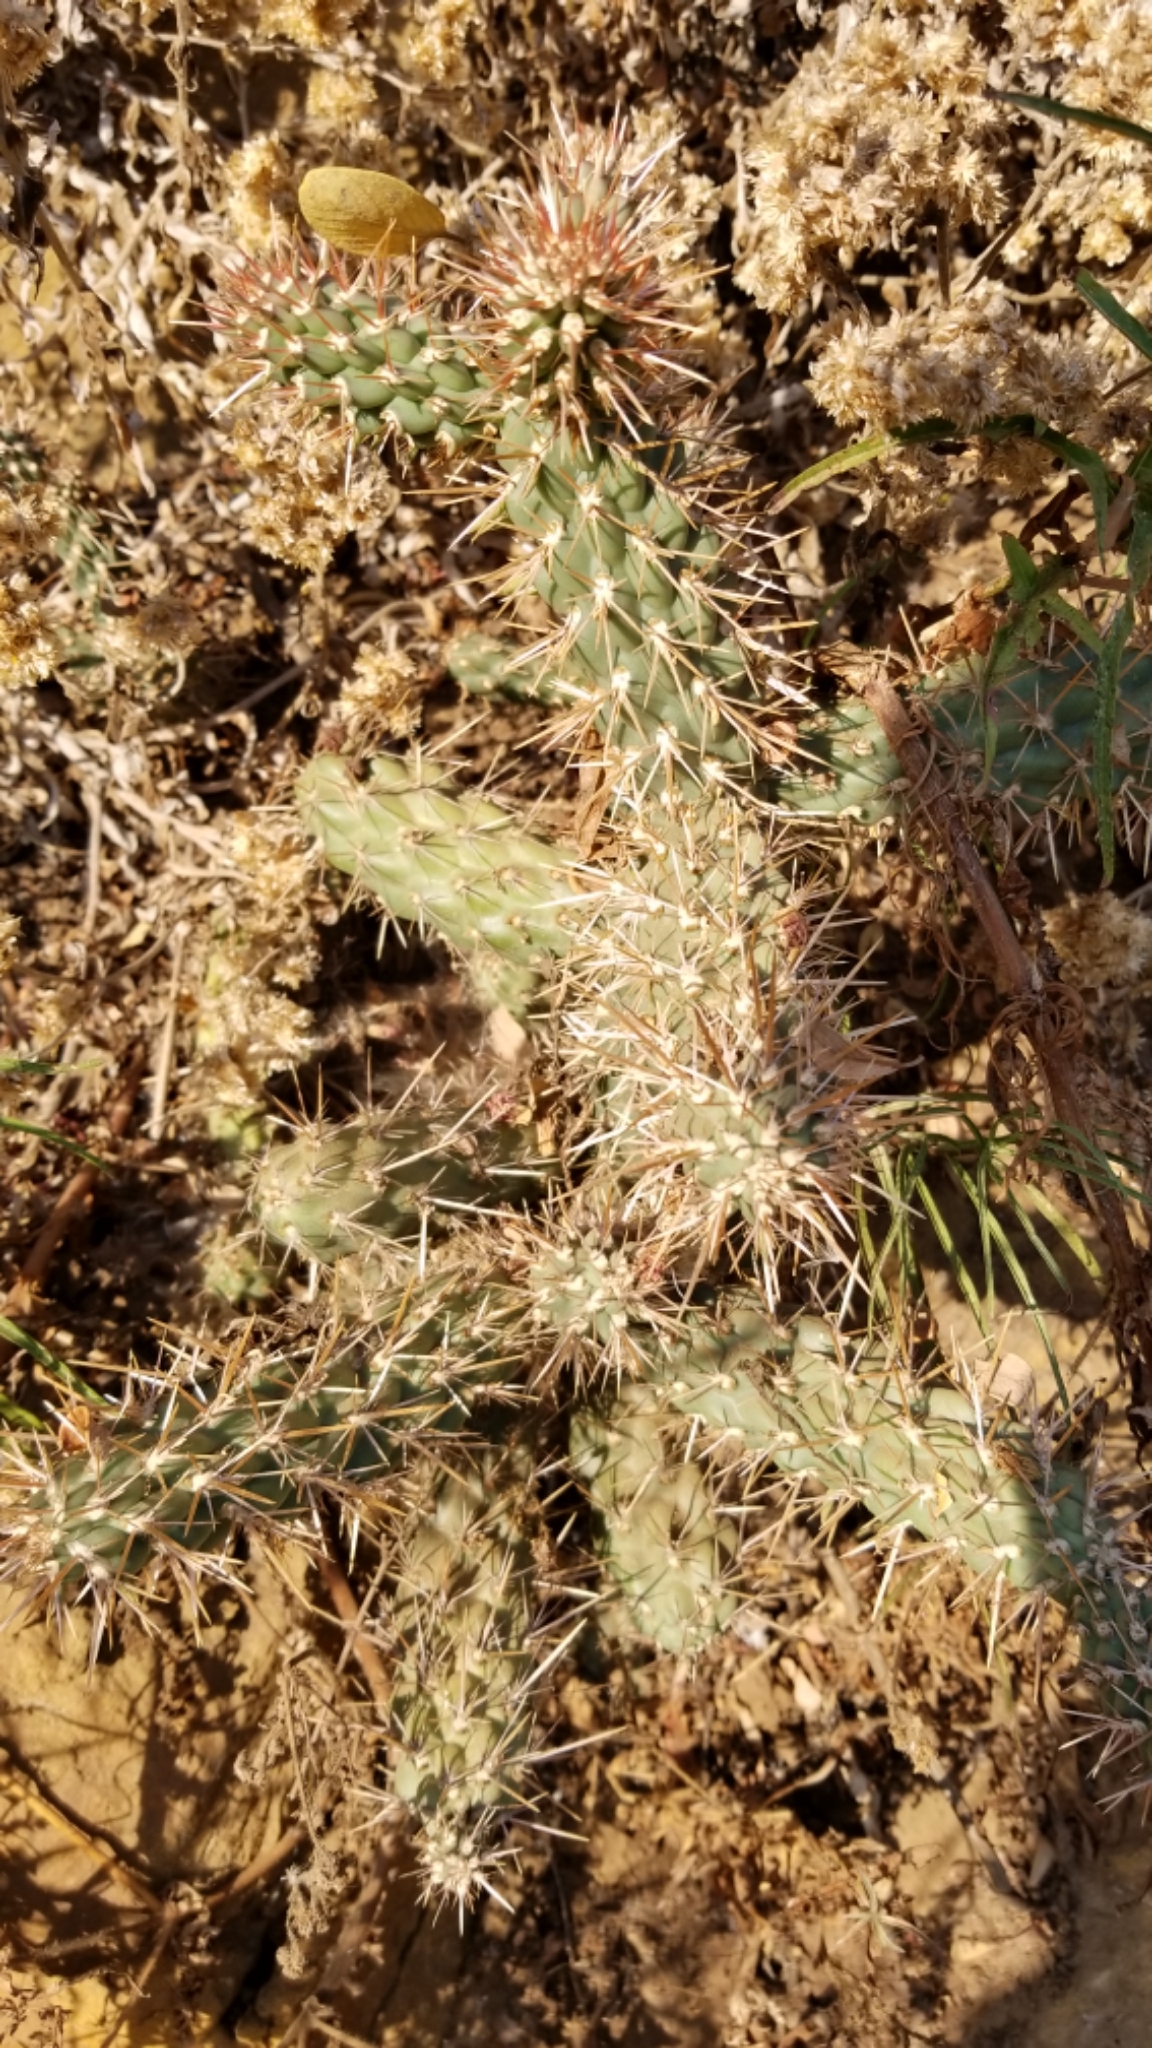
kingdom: Plantae
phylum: Tracheophyta
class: Magnoliopsida
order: Caryophyllales
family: Cactaceae
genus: Cylindropuntia
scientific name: Cylindropuntia prolifera
